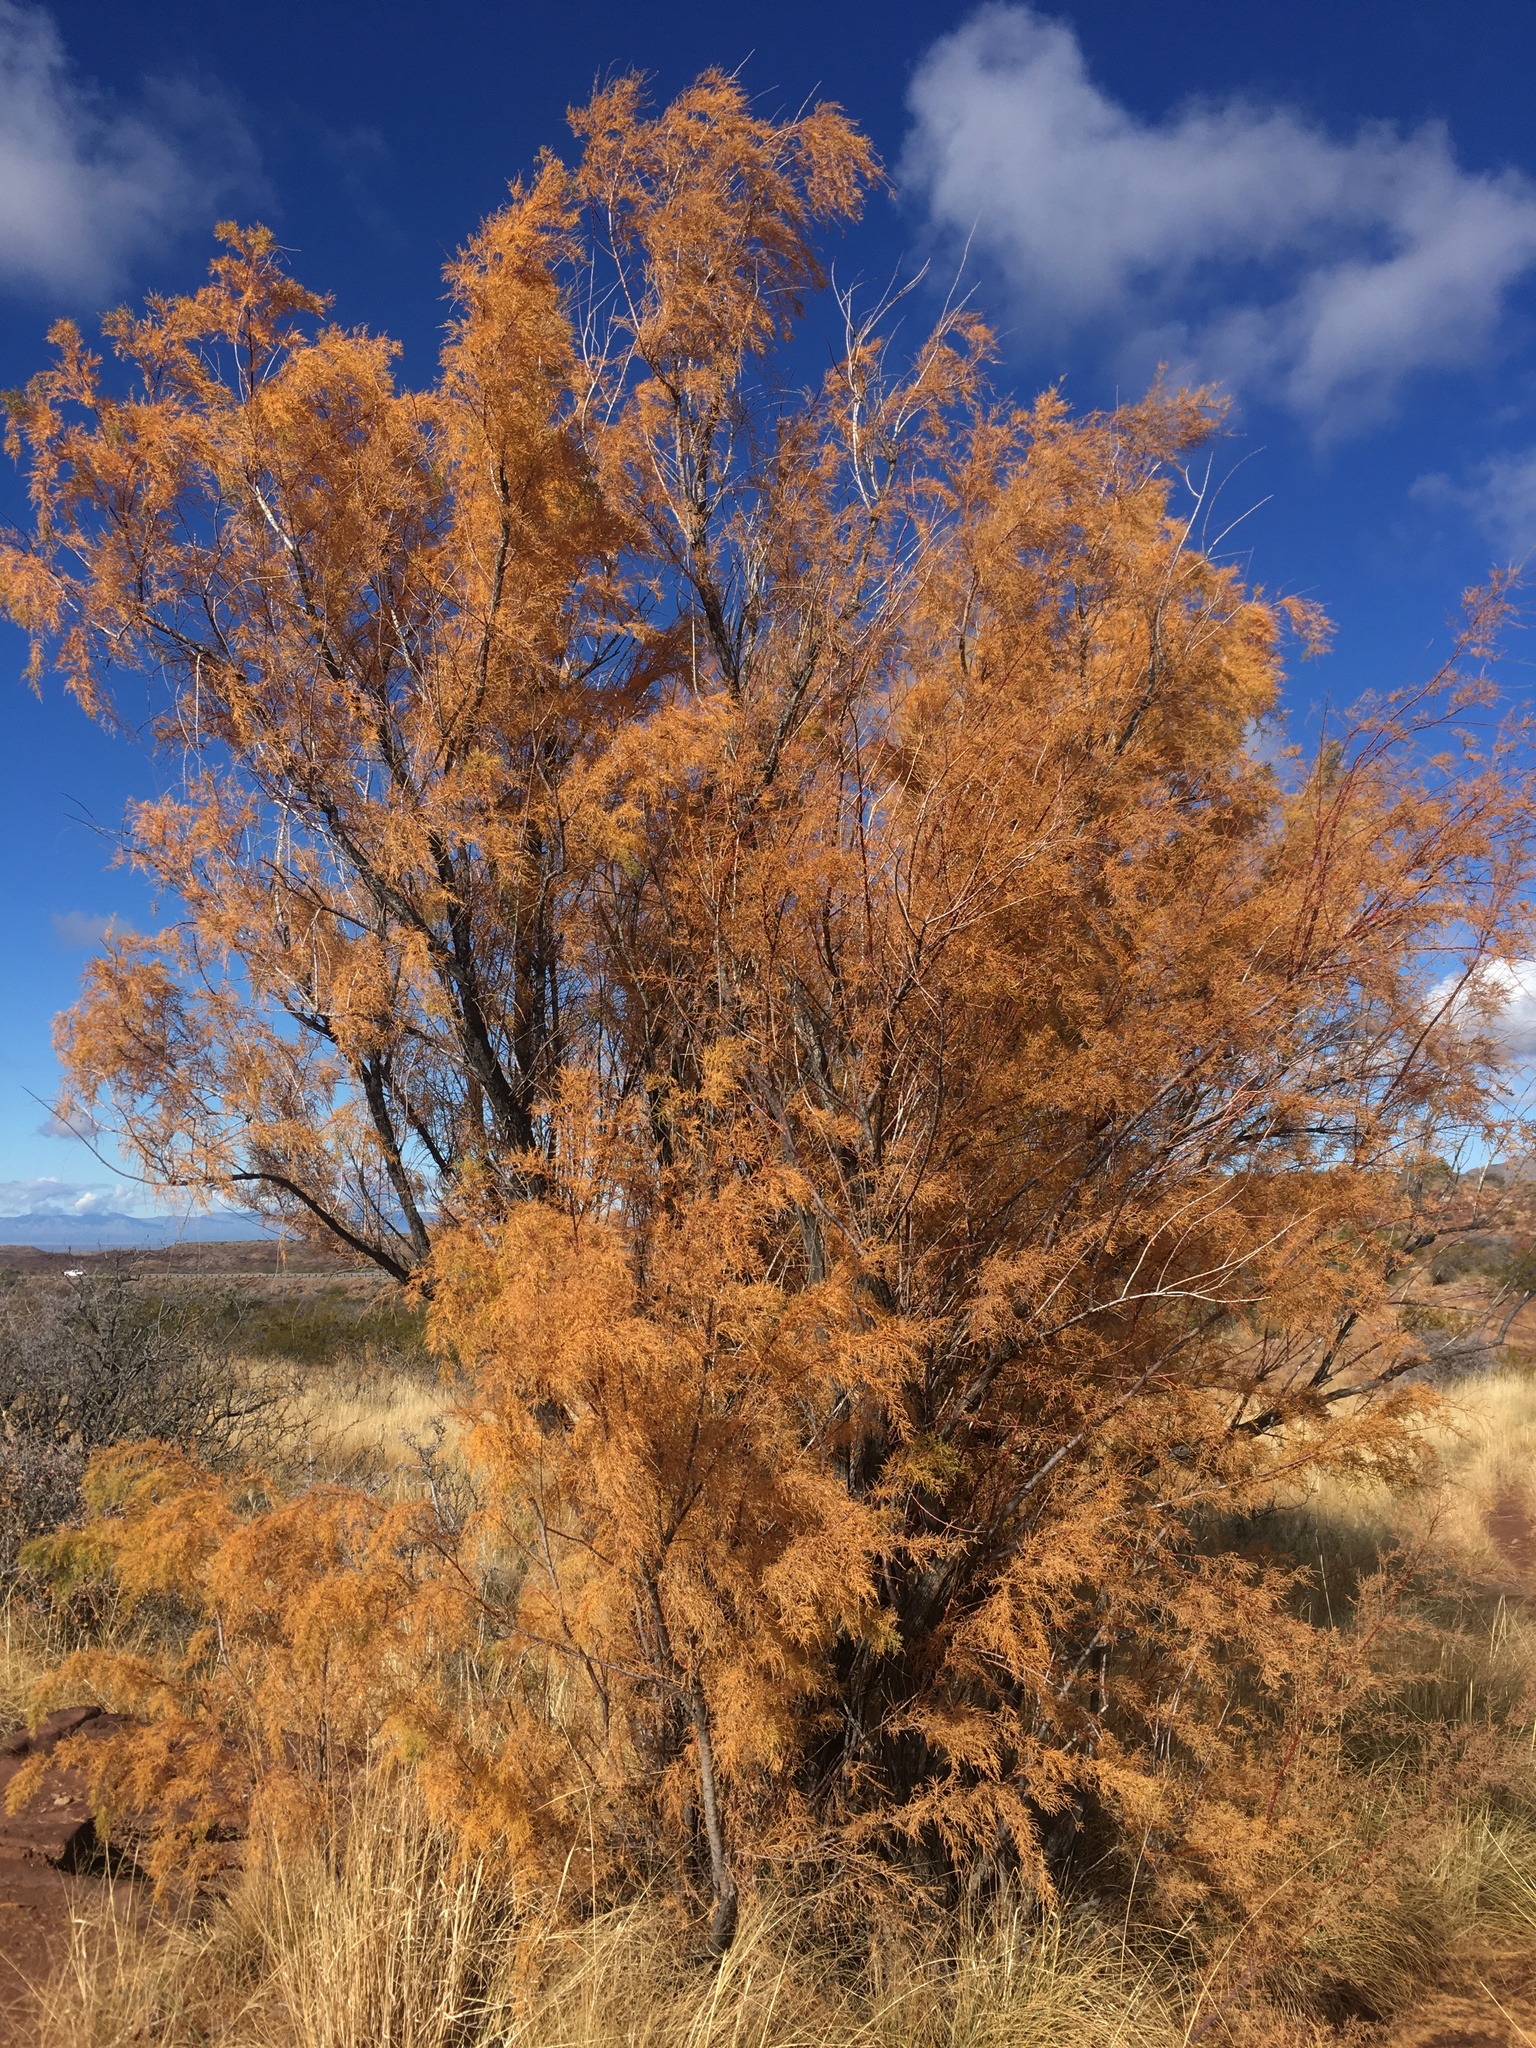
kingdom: Plantae
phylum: Tracheophyta
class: Magnoliopsida
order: Caryophyllales
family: Tamaricaceae
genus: Tamarix
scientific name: Tamarix chinensis
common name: Chinese tamarisk
